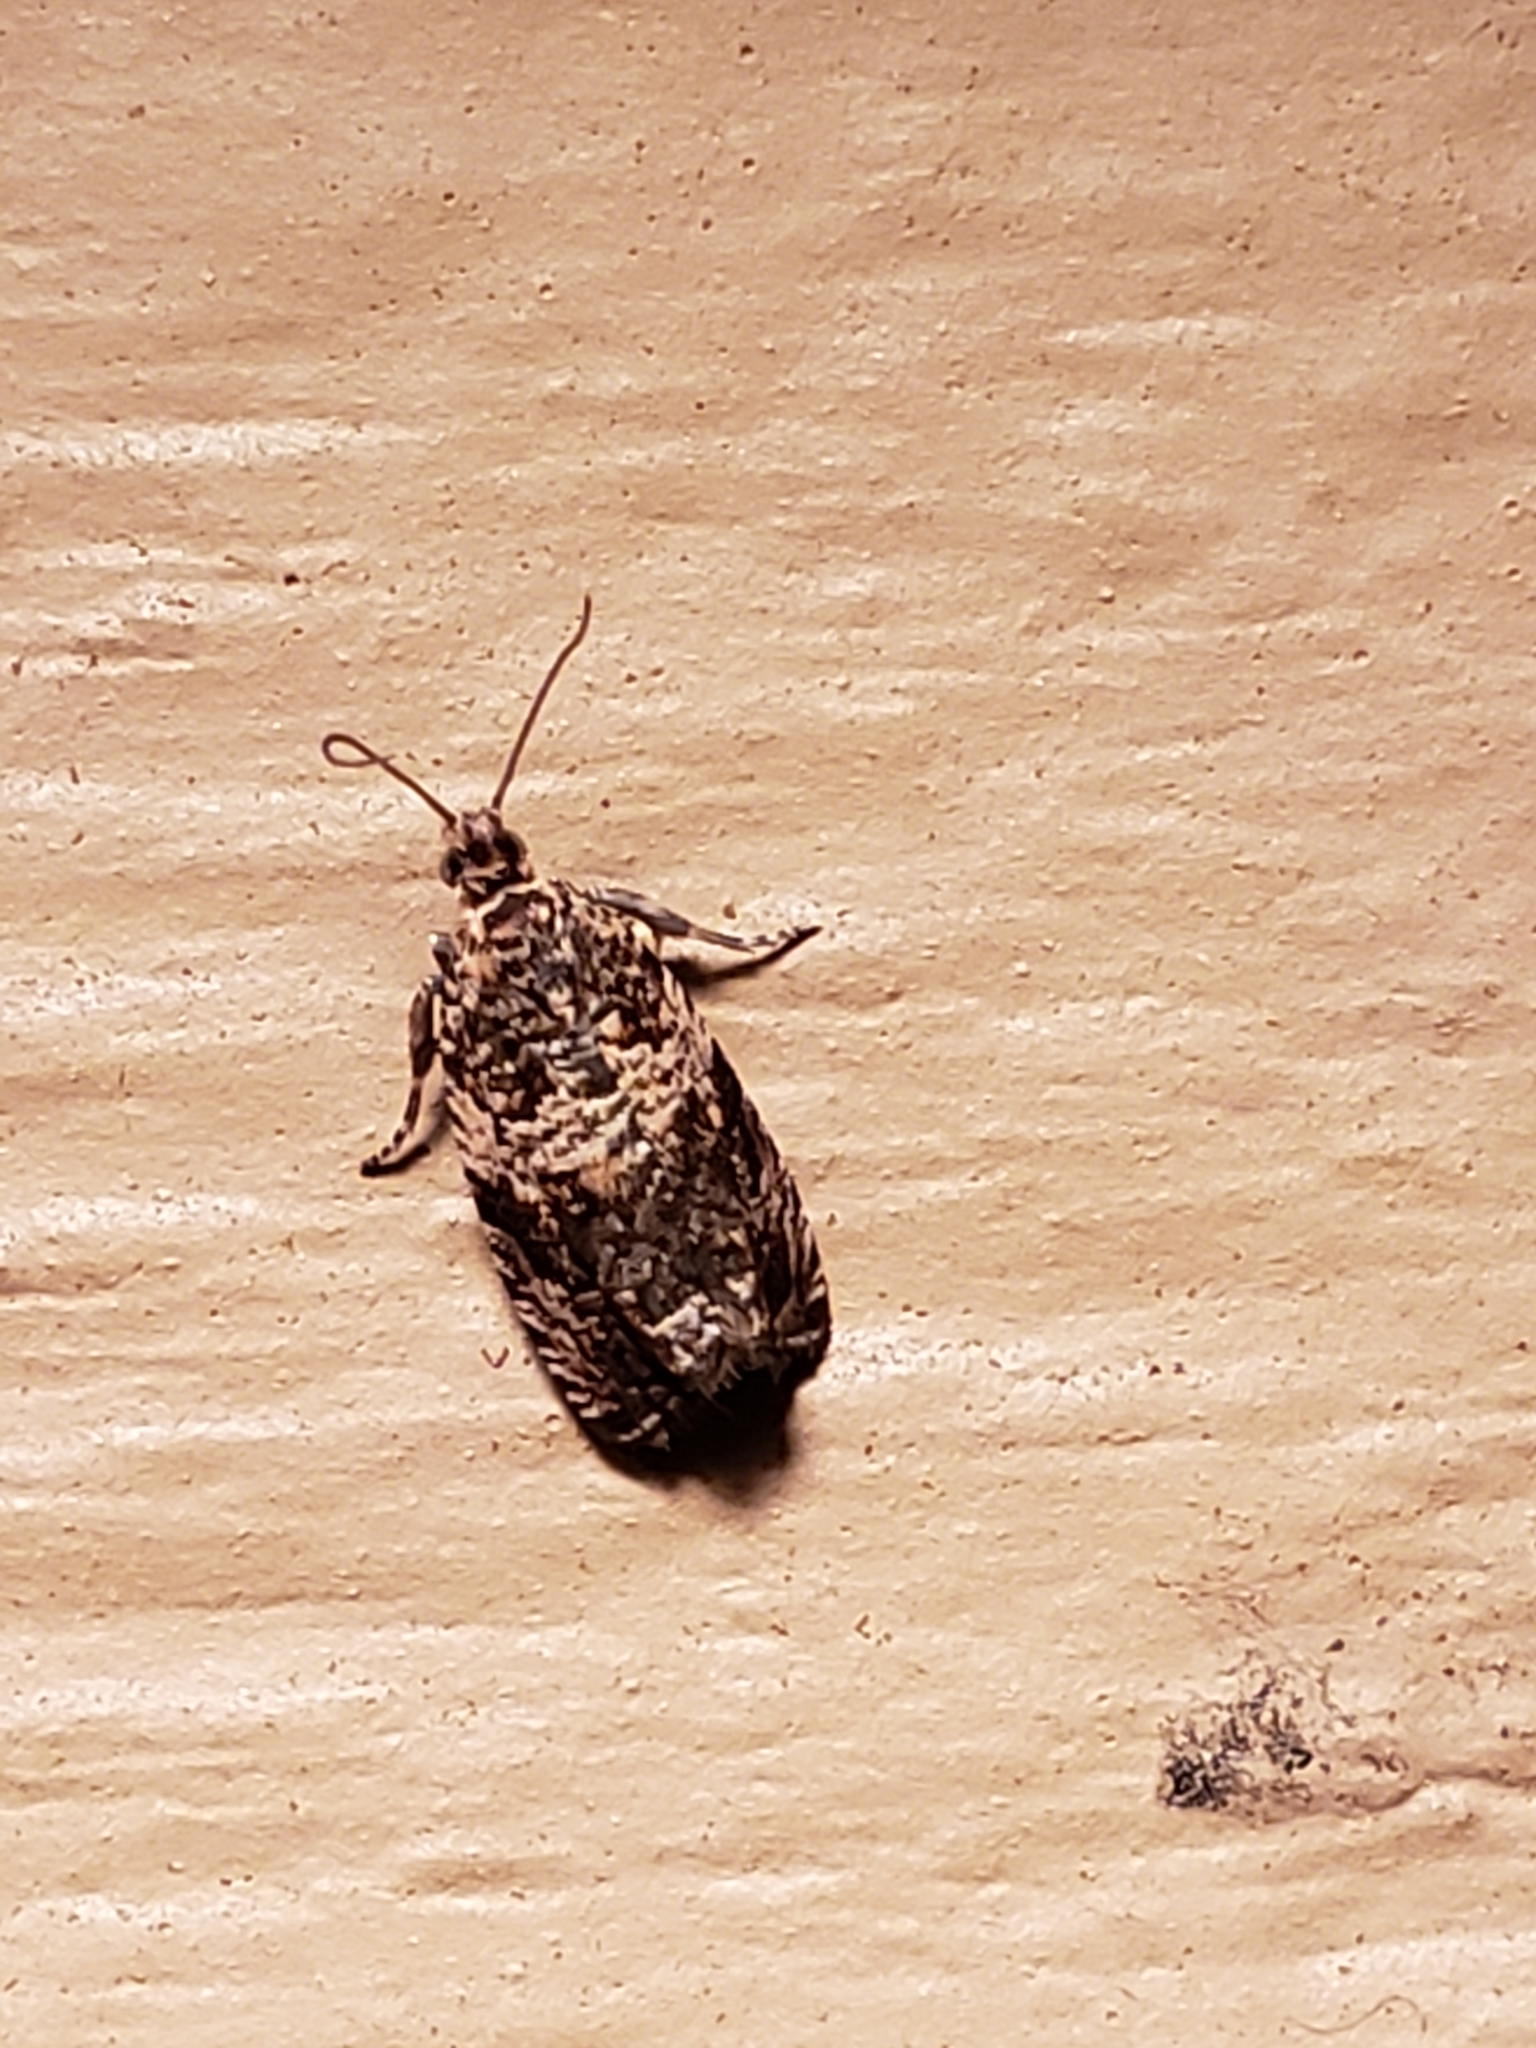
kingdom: Animalia
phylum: Arthropoda
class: Insecta
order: Lepidoptera
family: Tortricidae
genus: Celypha
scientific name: Celypha cespitana
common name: Thyme marble
